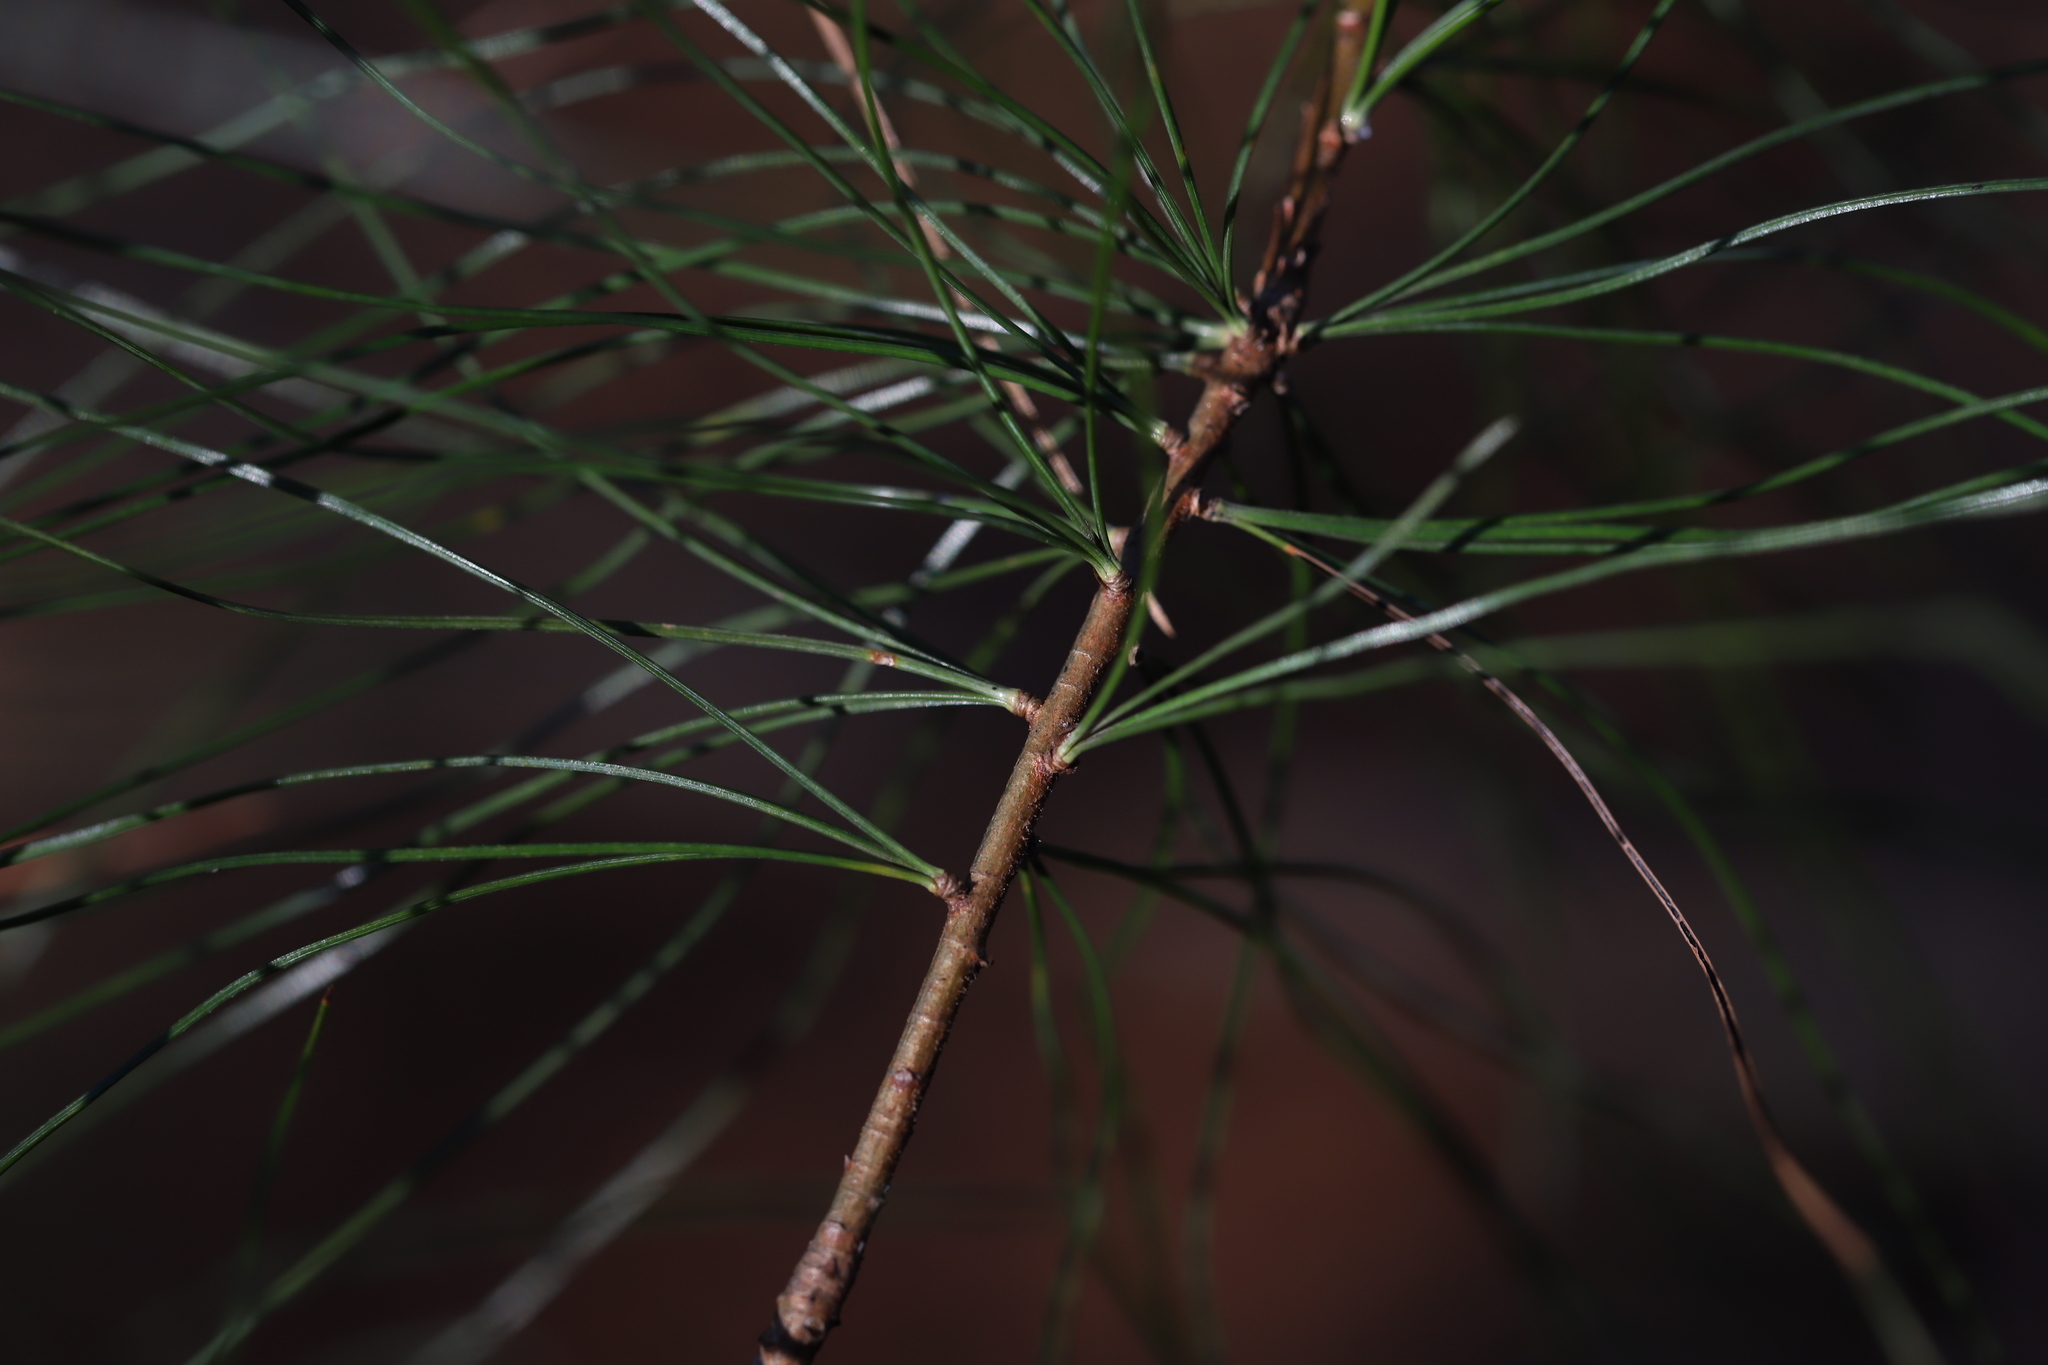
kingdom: Plantae
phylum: Tracheophyta
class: Pinopsida
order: Pinales
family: Pinaceae
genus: Pinus
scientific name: Pinus strobus
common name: Weymouth pine
